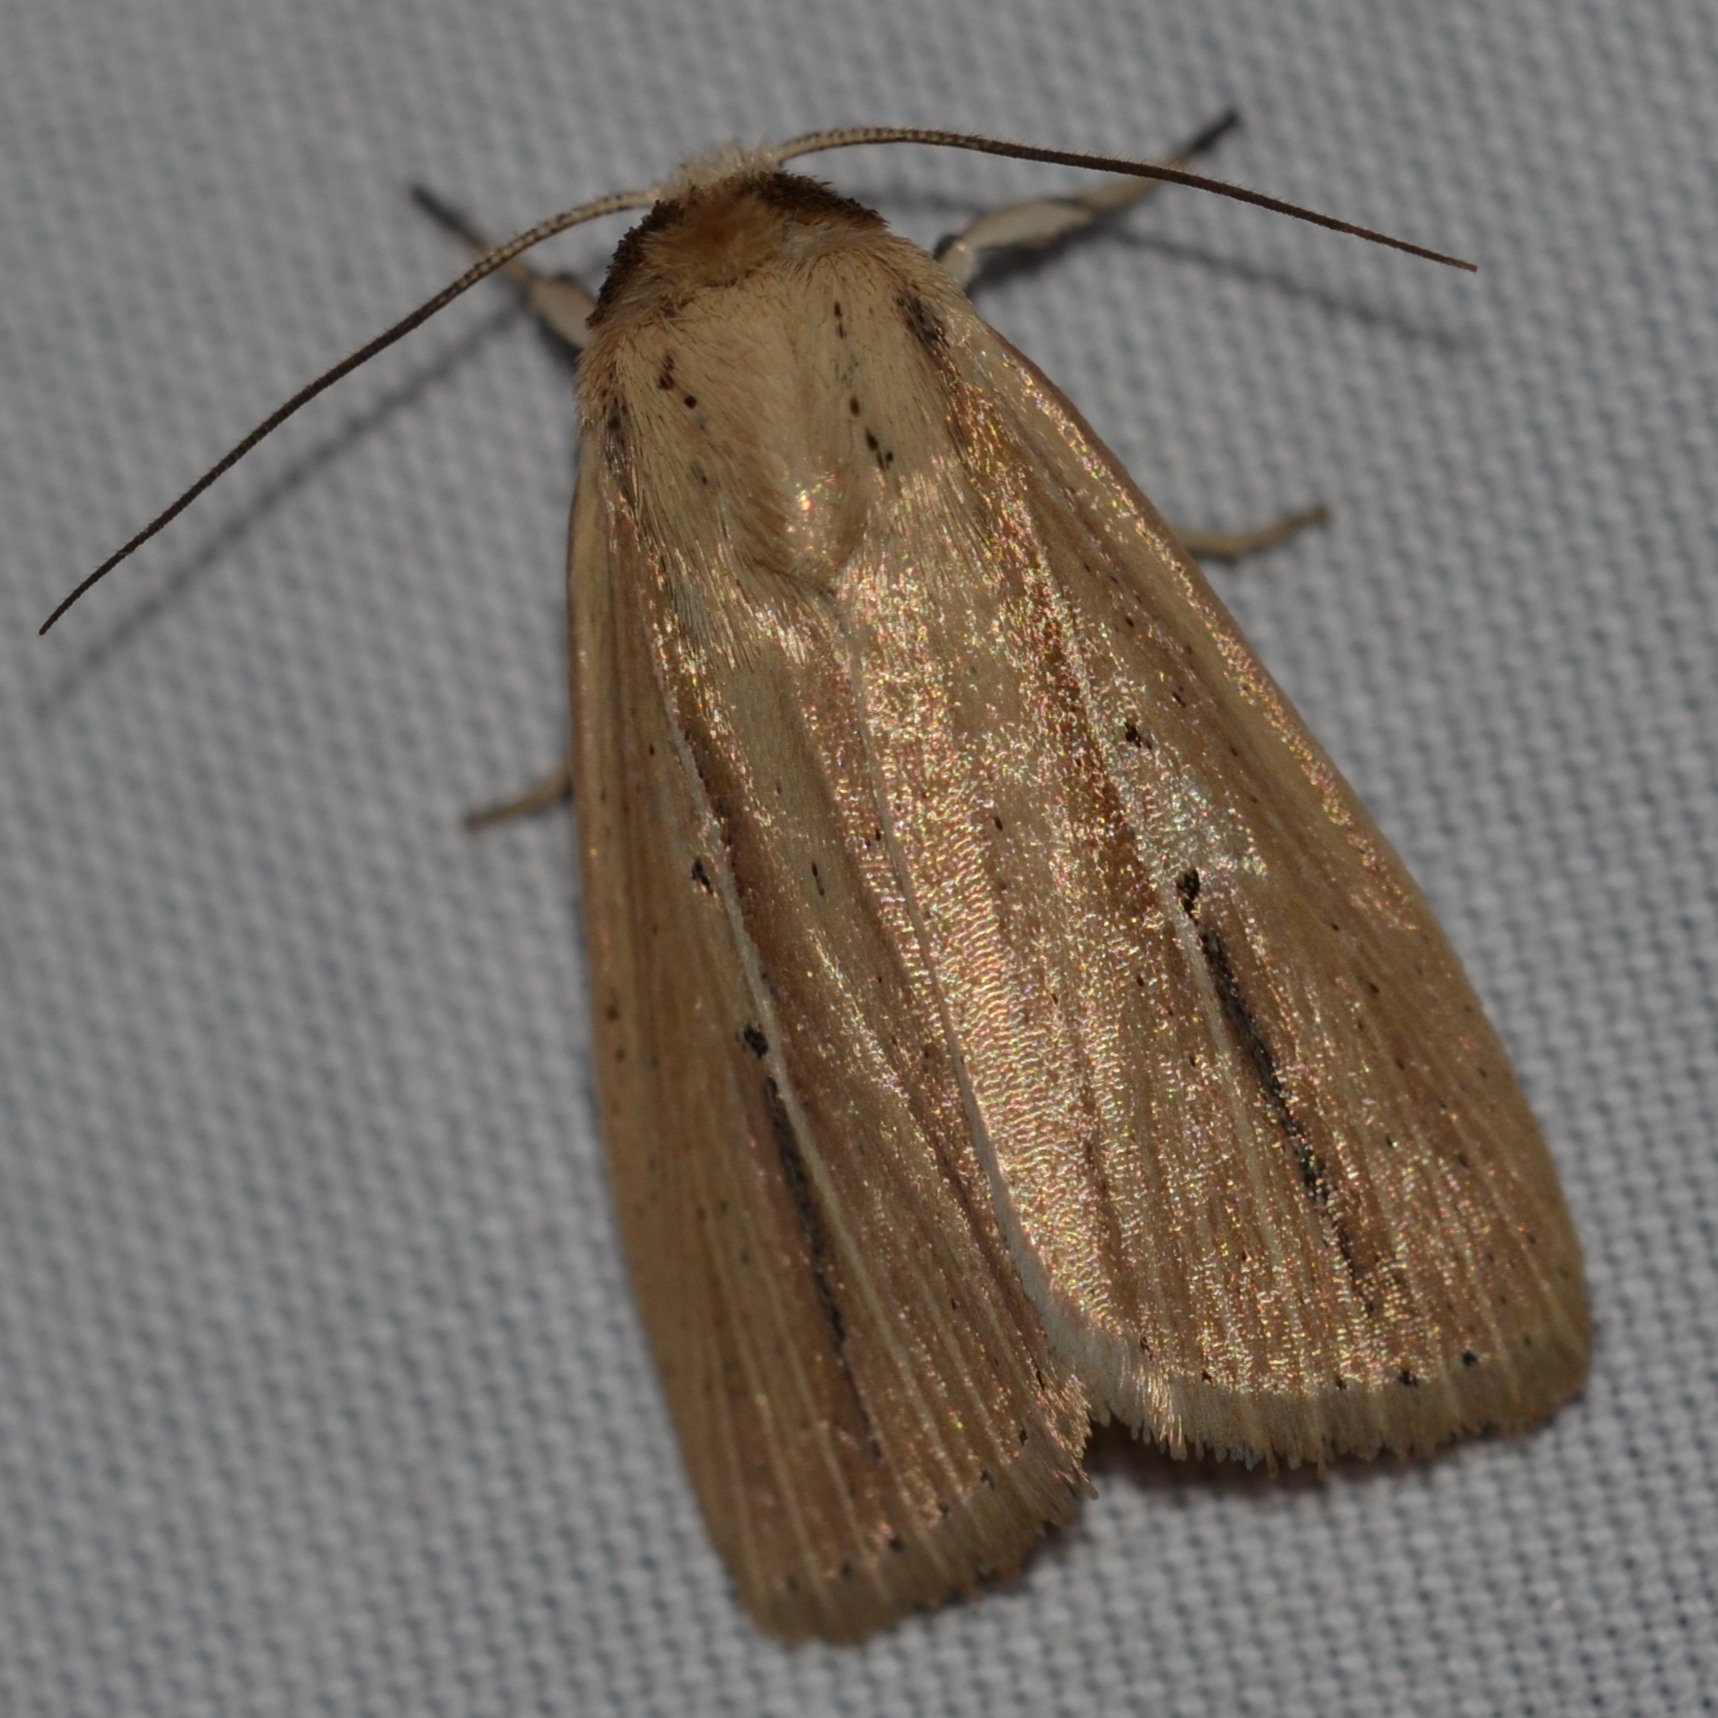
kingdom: Animalia
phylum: Arthropoda
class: Insecta
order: Lepidoptera
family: Noctuidae
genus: Leucania
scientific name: Leucania scottii
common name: Cutworm
